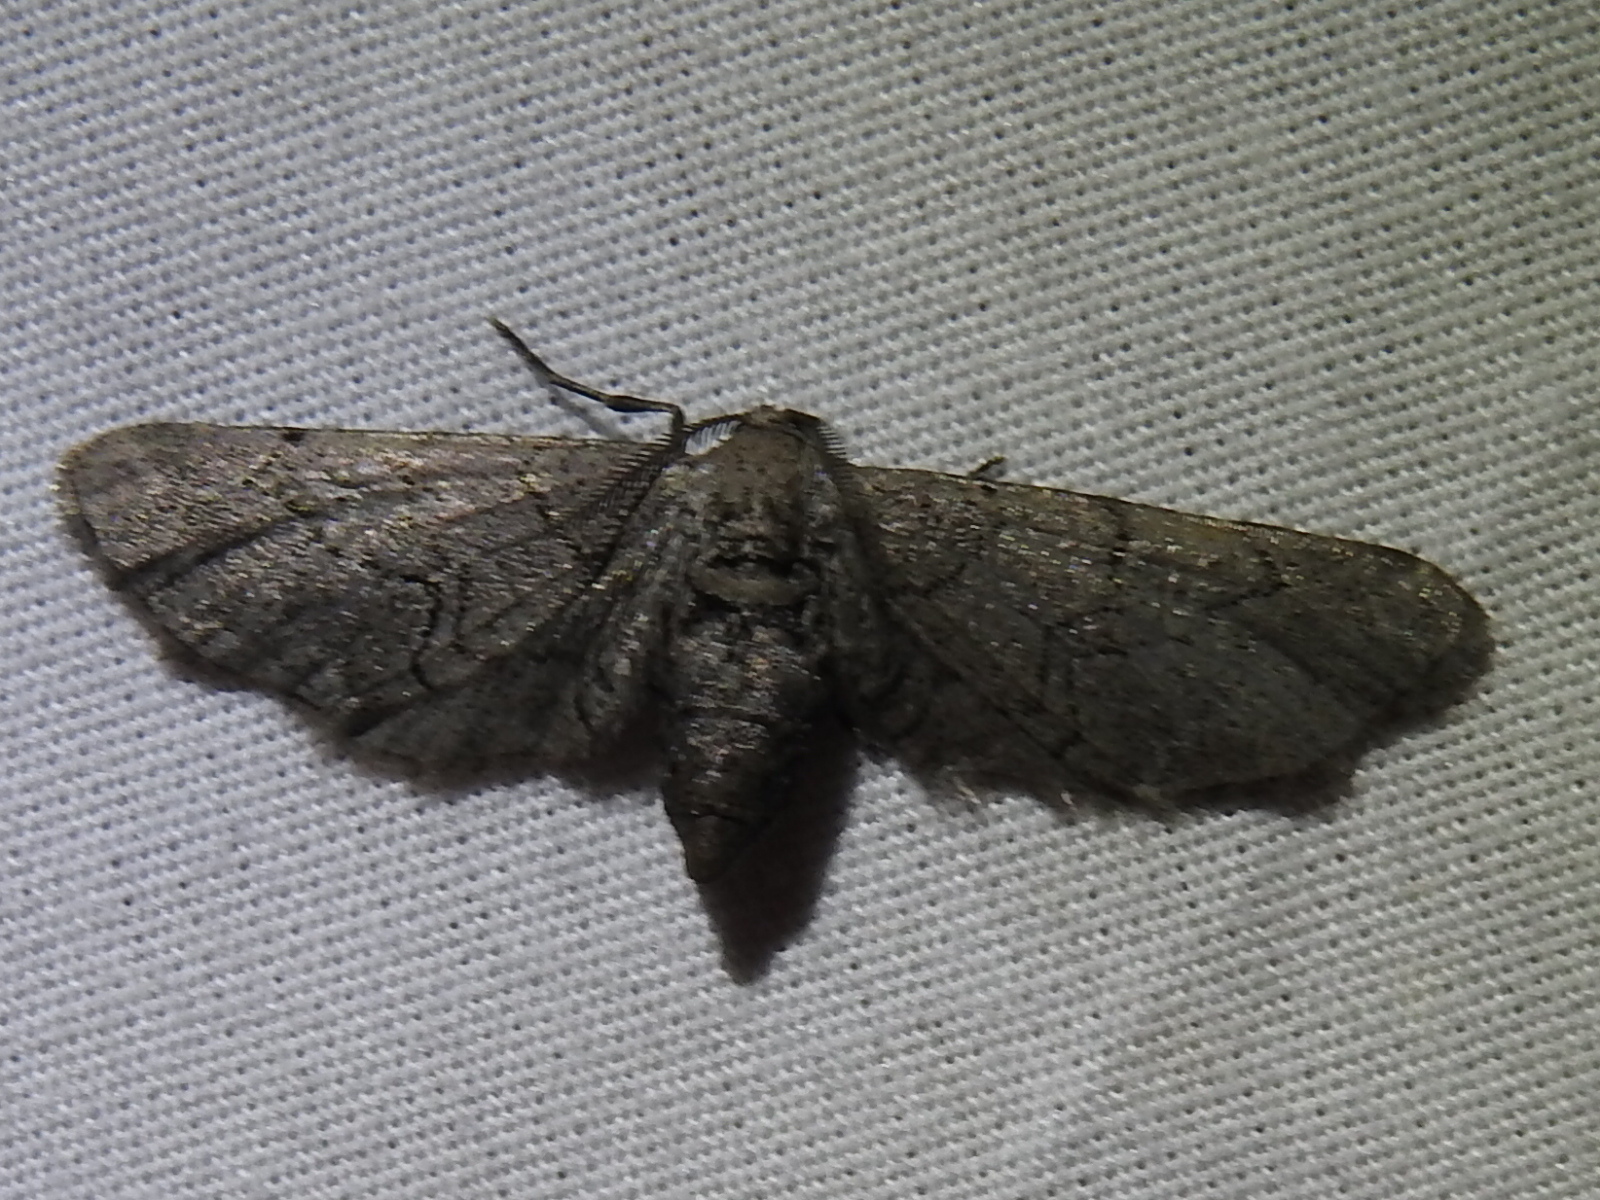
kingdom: Animalia
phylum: Arthropoda
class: Insecta
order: Lepidoptera
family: Geometridae
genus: Exelis
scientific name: Exelis ophiurus
